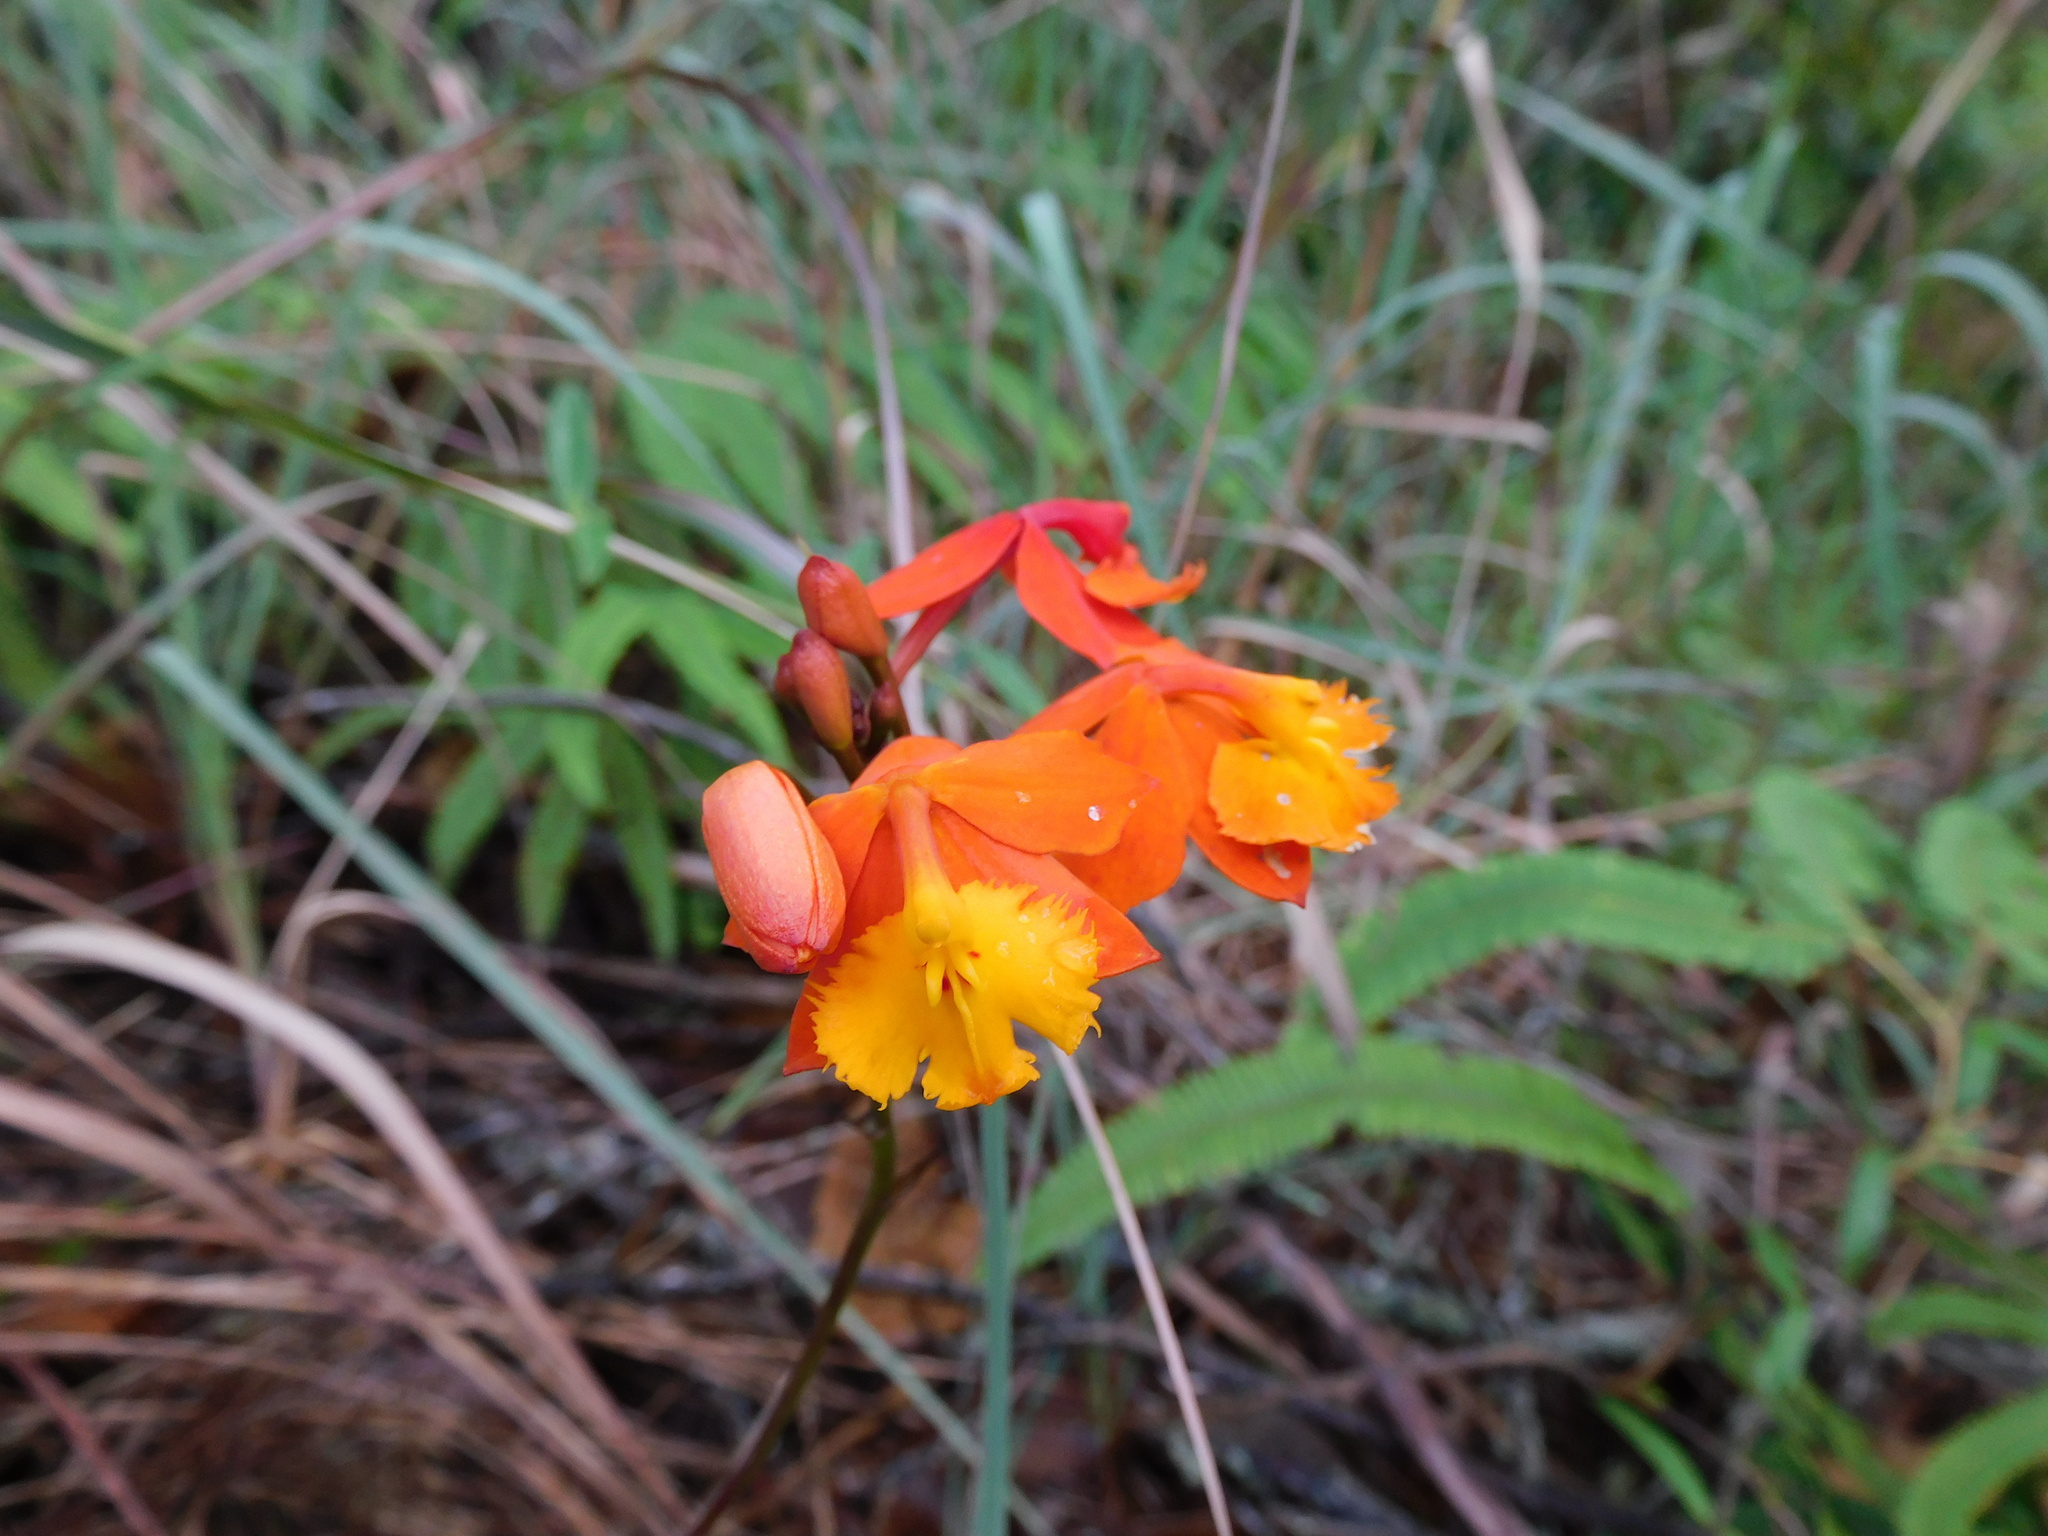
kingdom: Plantae
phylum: Tracheophyta
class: Liliopsida
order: Asparagales
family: Orchidaceae
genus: Epidendrum
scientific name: Epidendrum radicans
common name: Fire star orchid
